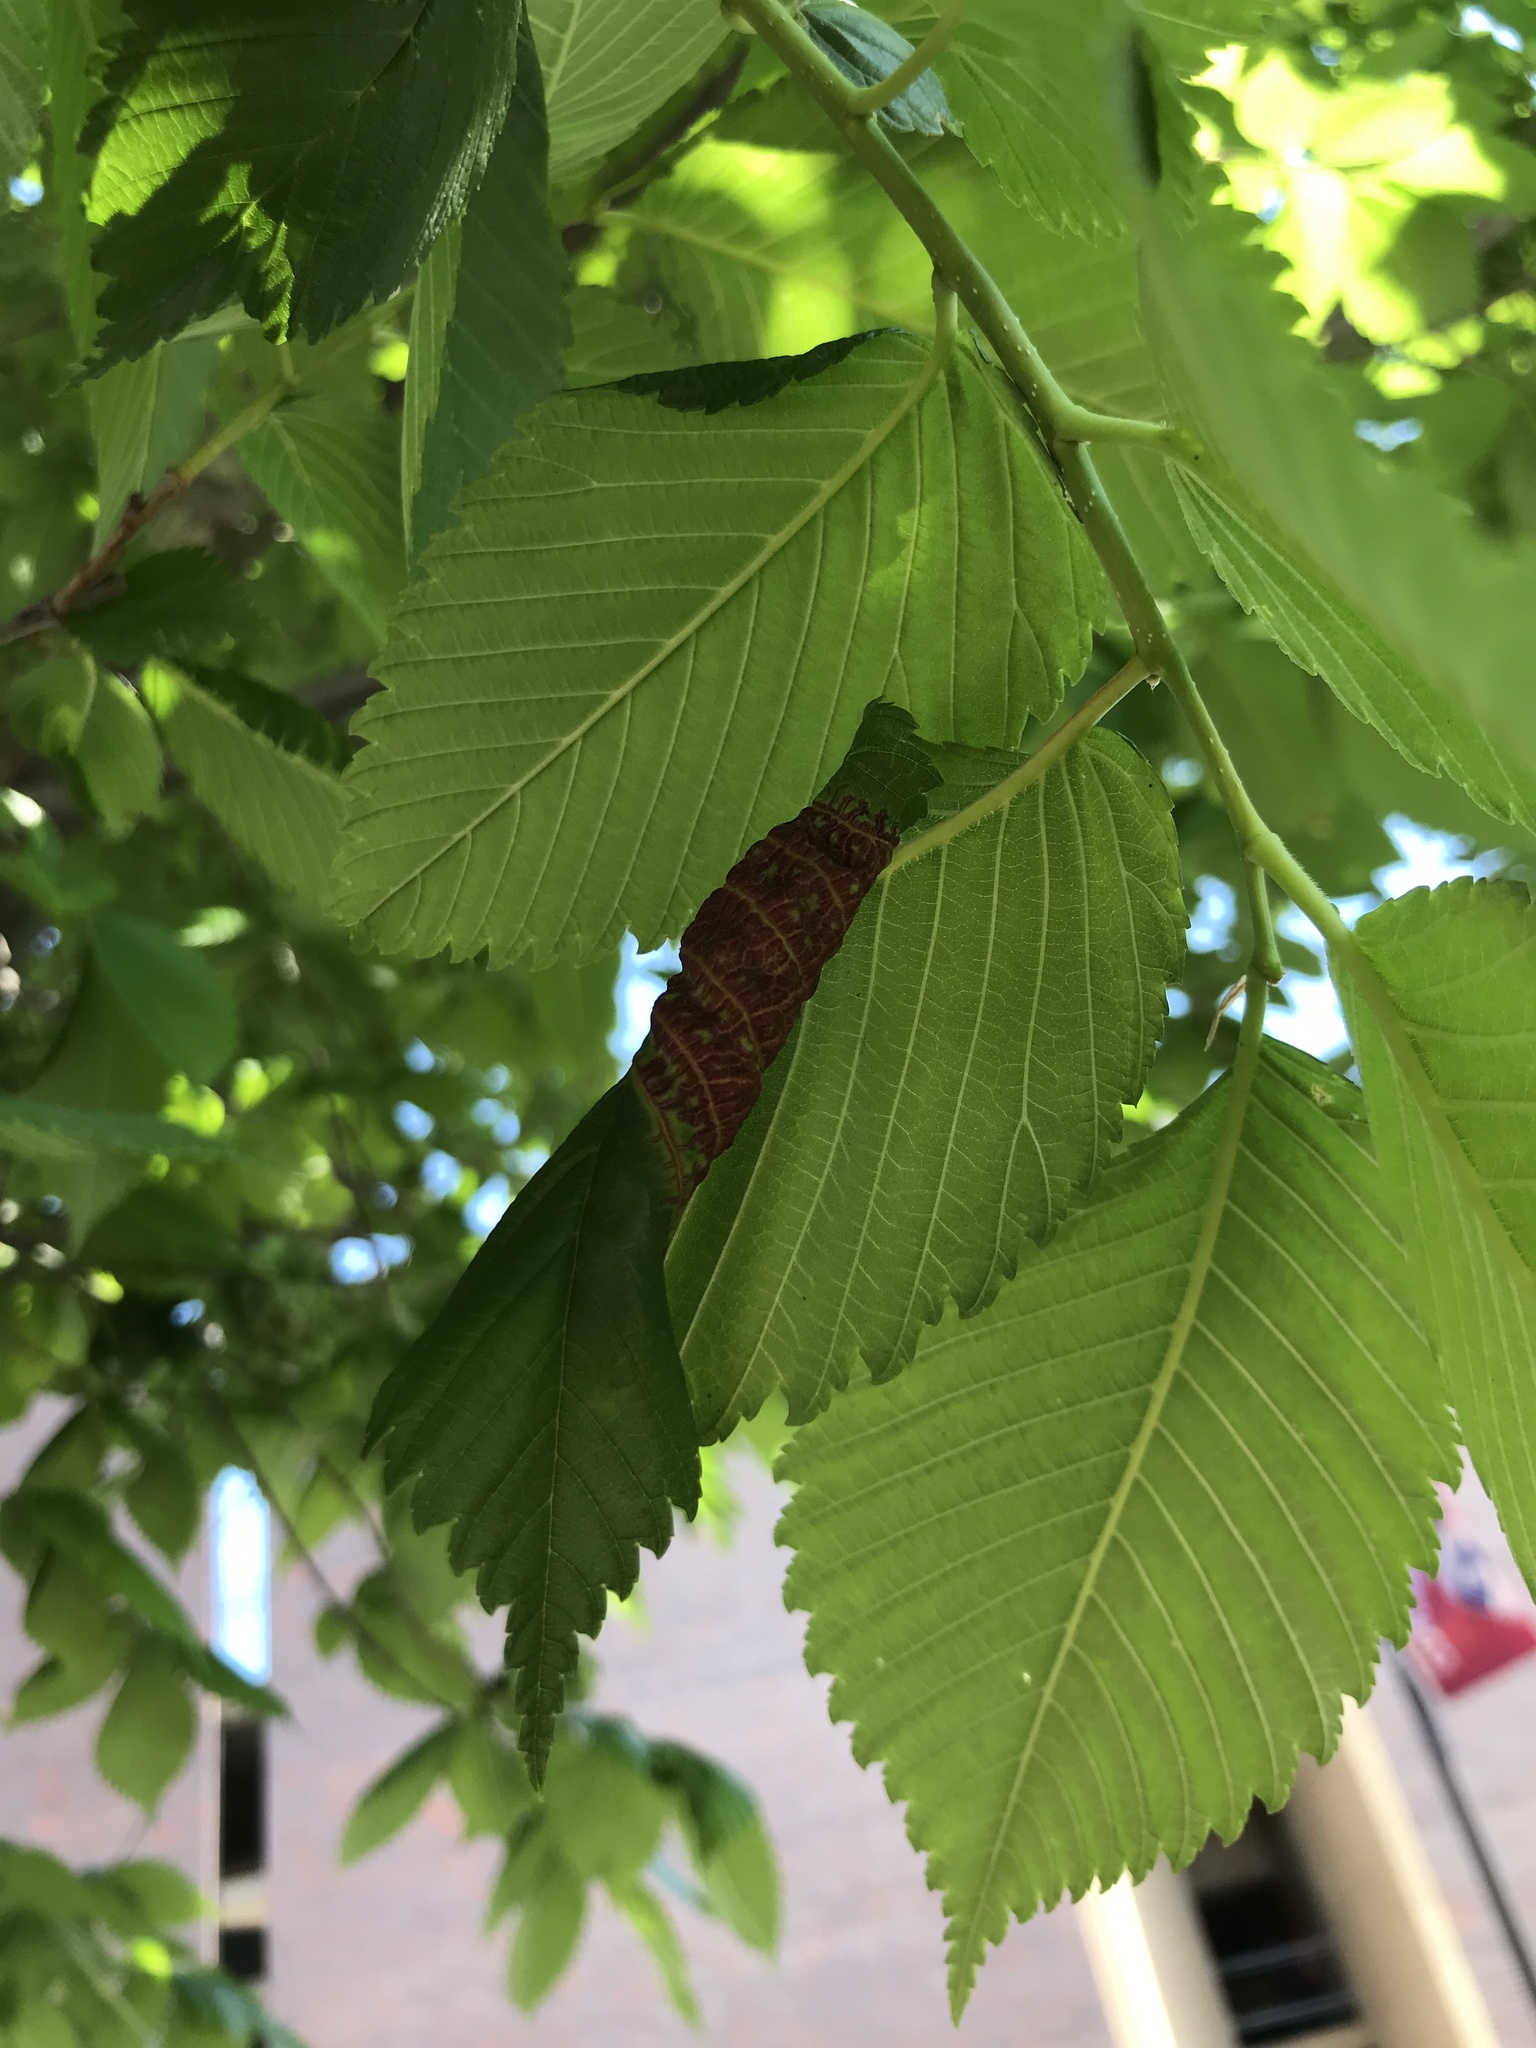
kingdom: Animalia
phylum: Arthropoda
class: Insecta
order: Hemiptera
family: Aphididae
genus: Eriosoma
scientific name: Eriosoma americanum
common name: Woolly elm aphid
